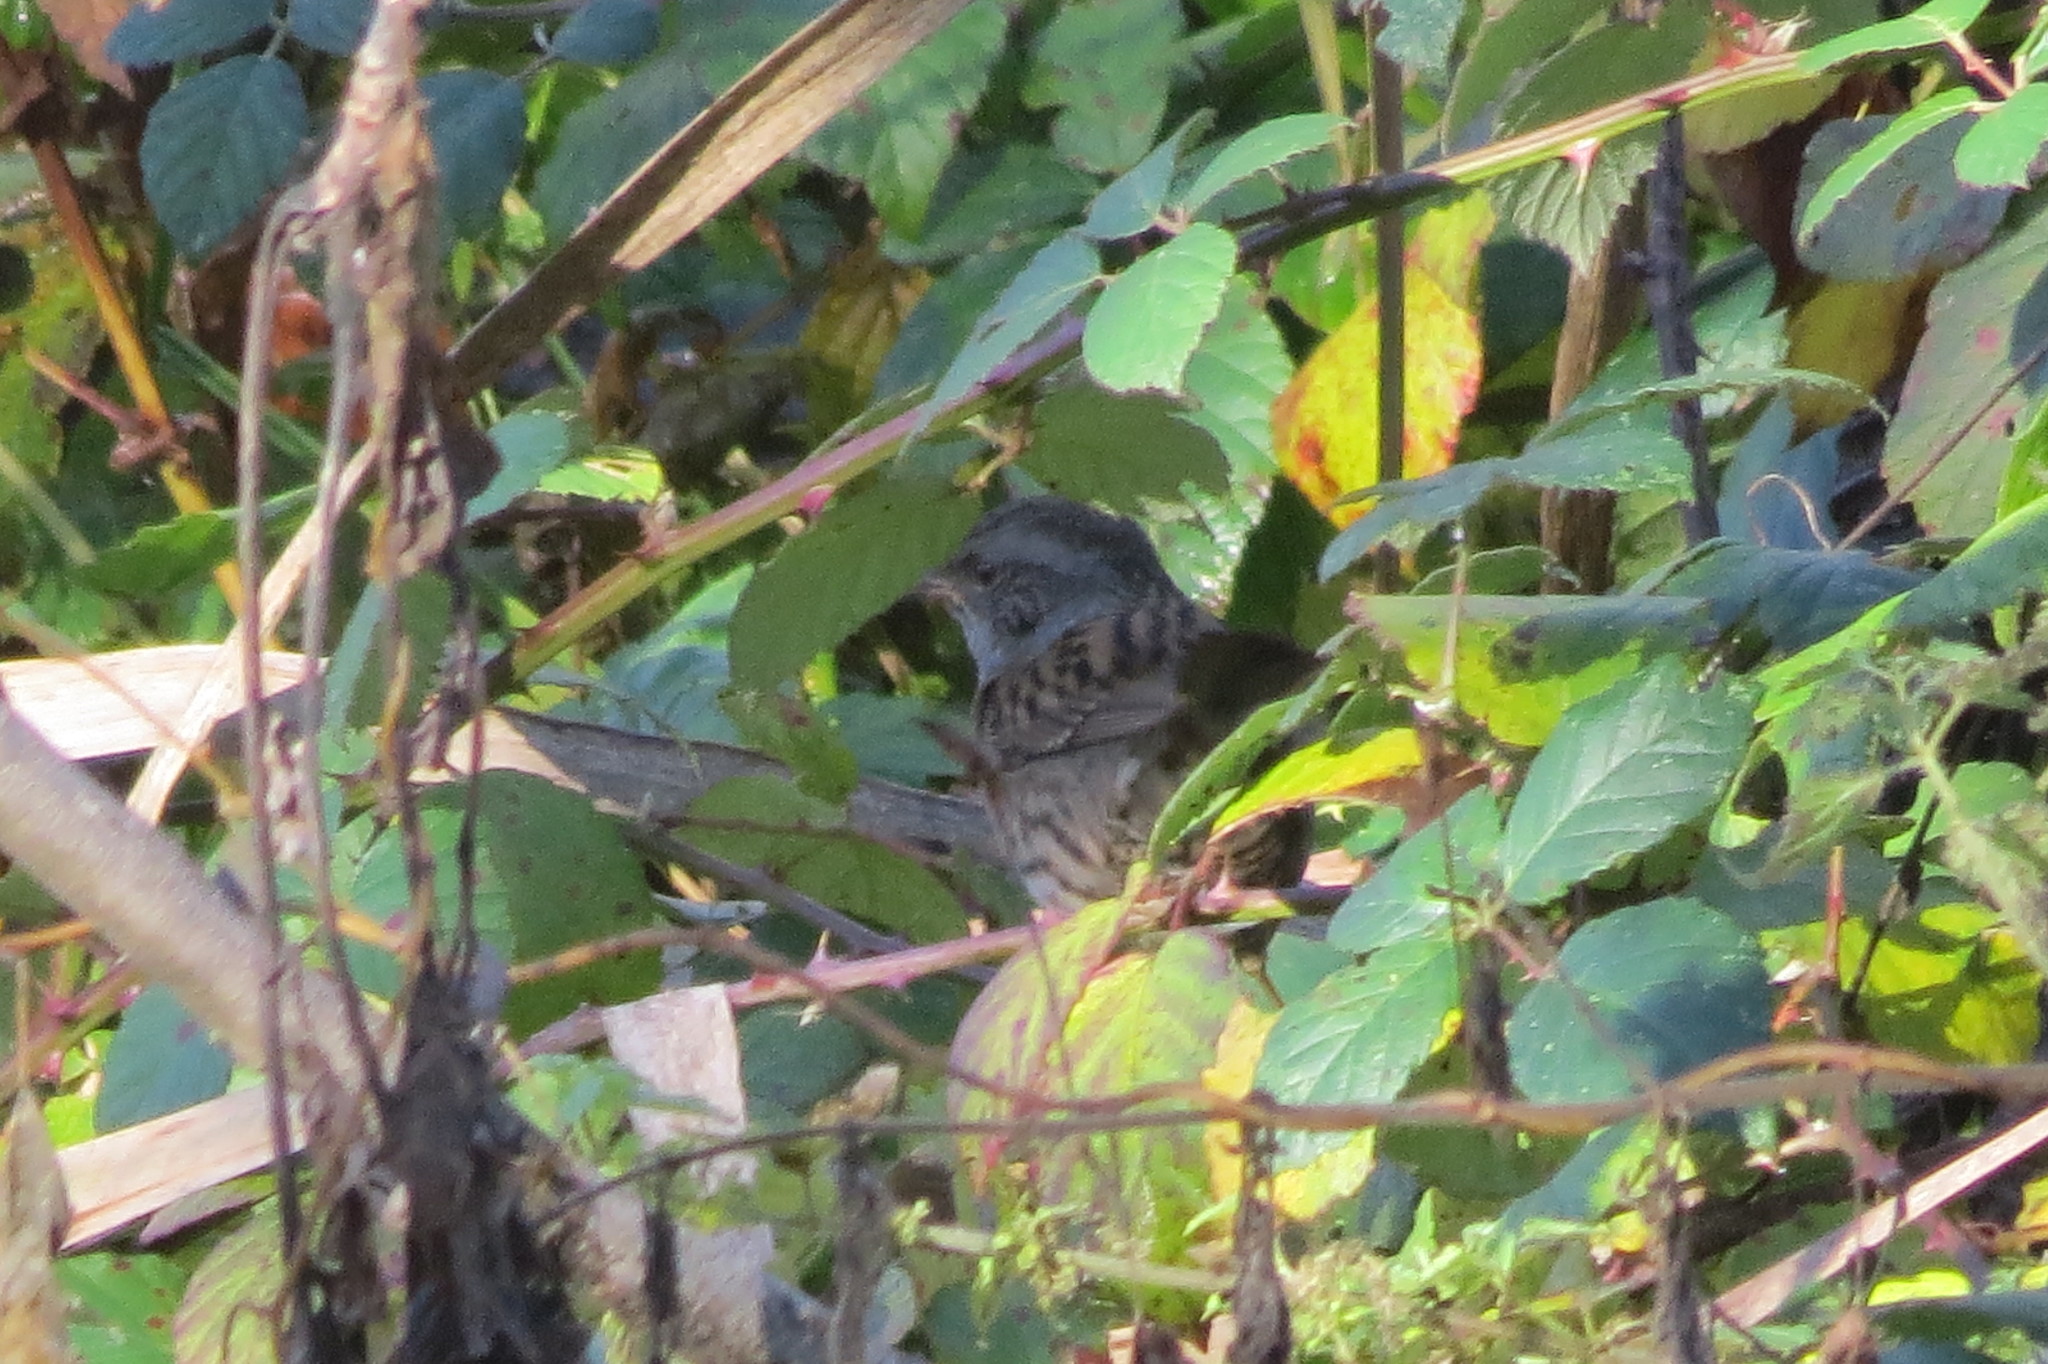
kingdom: Animalia
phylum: Chordata
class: Aves
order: Passeriformes
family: Prunellidae
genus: Prunella
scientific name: Prunella modularis
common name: Dunnock
